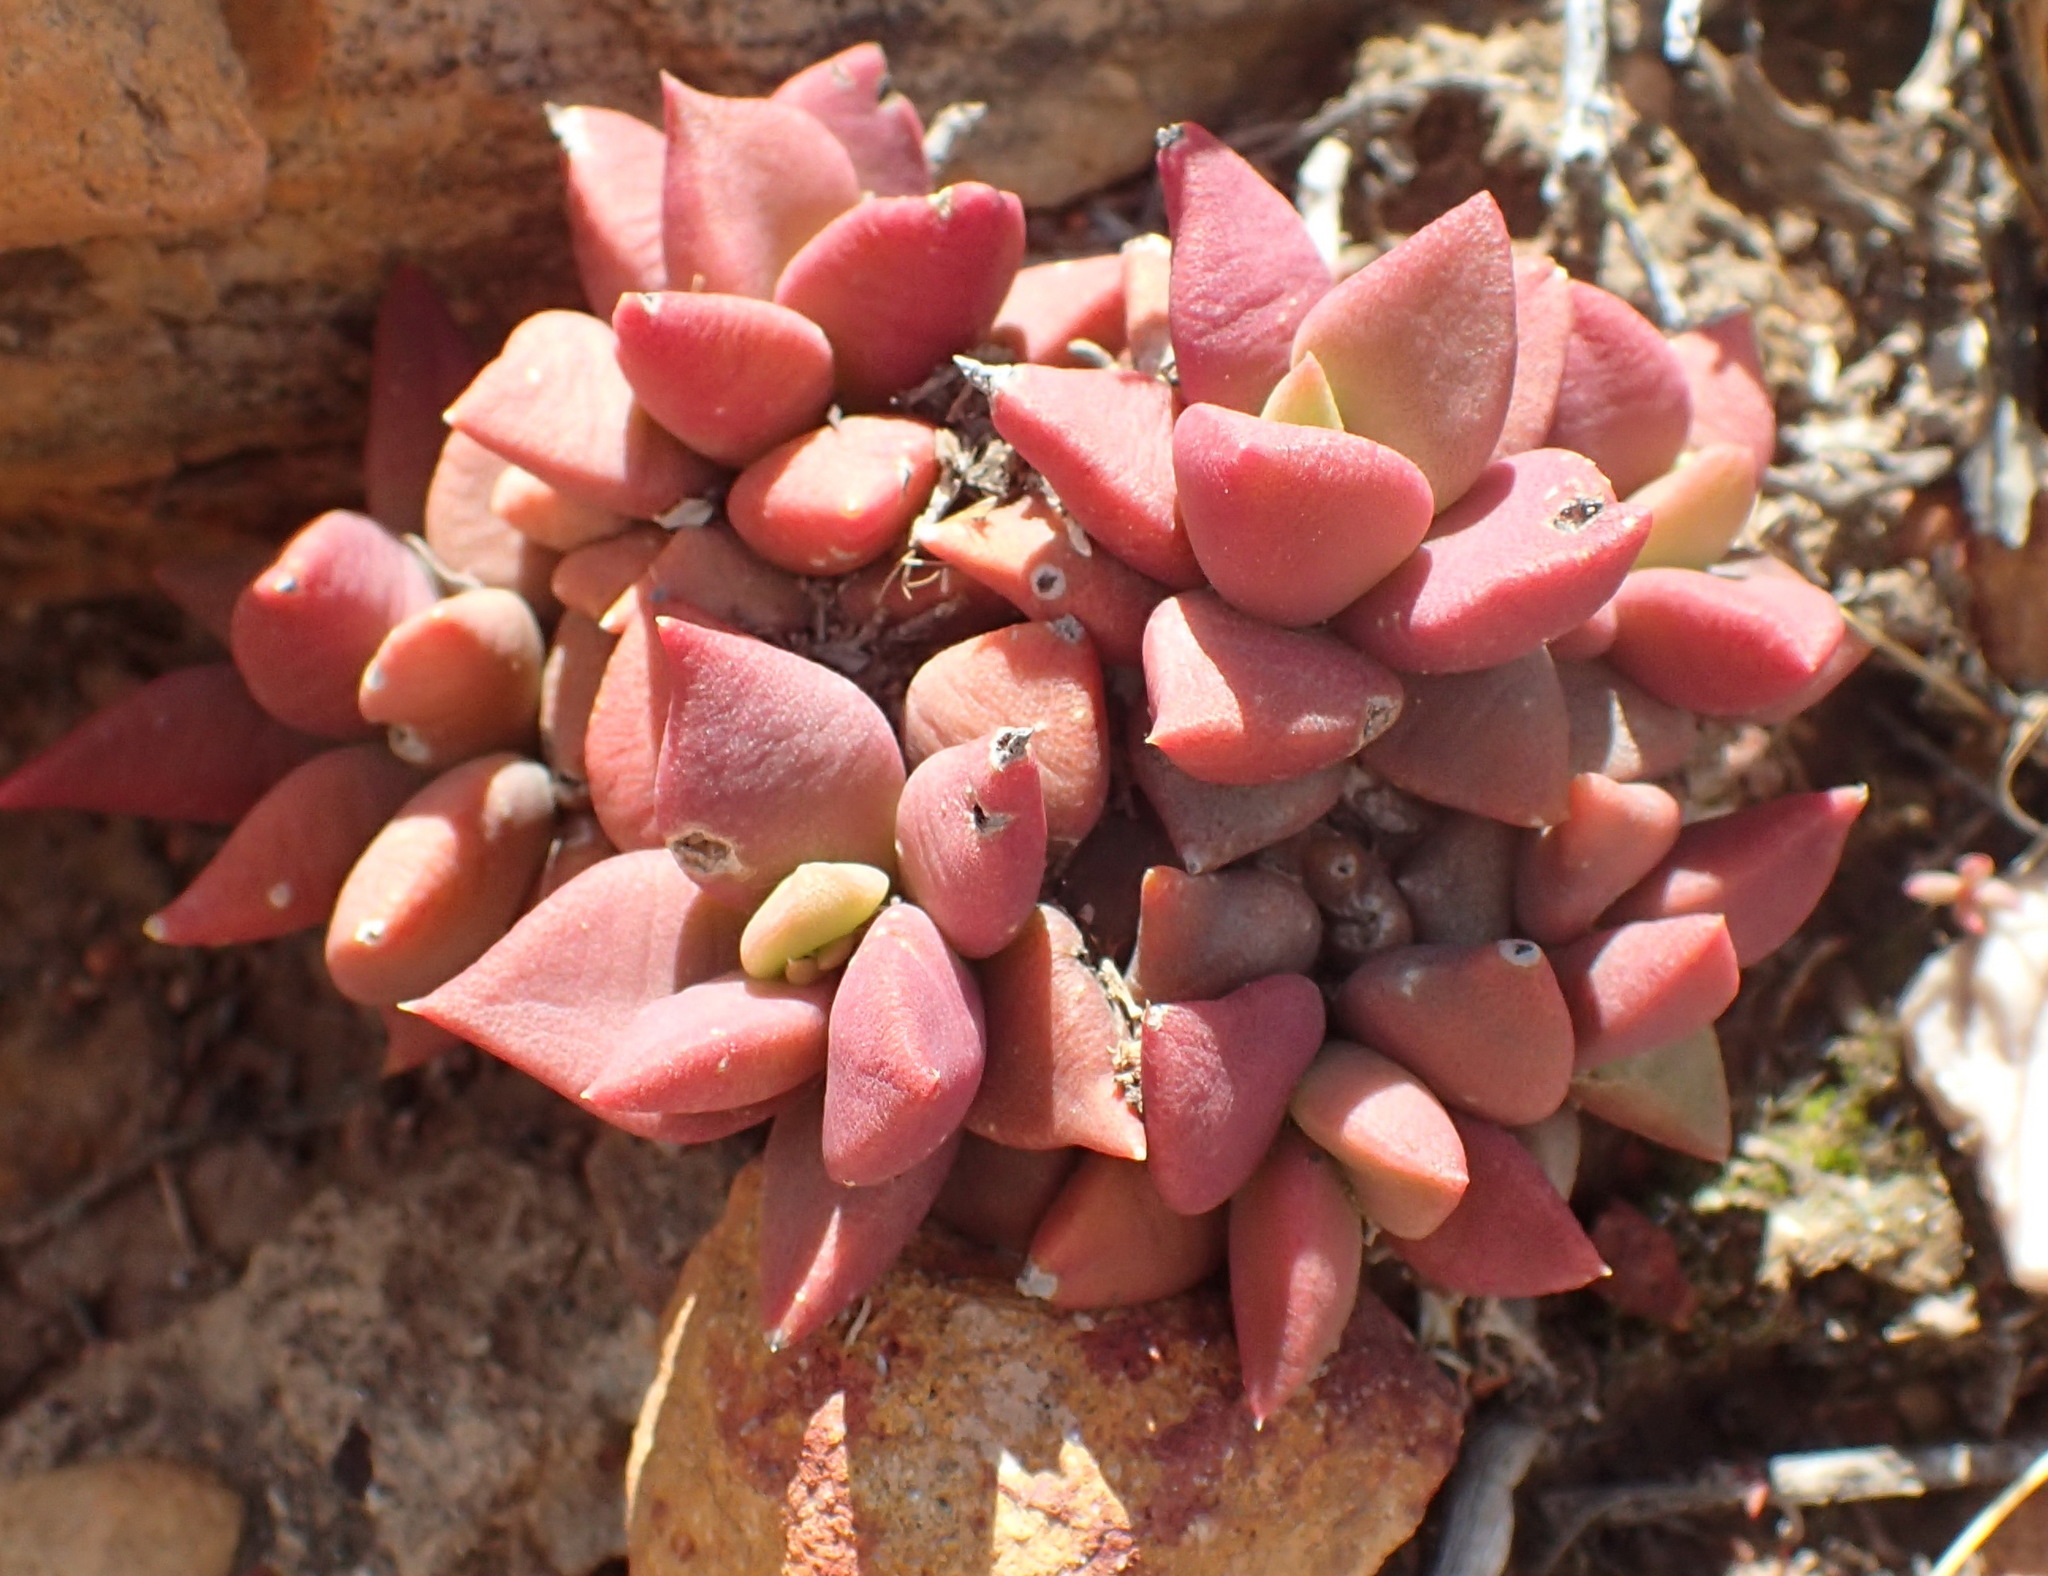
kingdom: Plantae
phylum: Tracheophyta
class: Magnoliopsida
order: Caryophyllales
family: Anacampserotaceae
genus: Anacampseros
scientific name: Anacampseros telephiastrum
